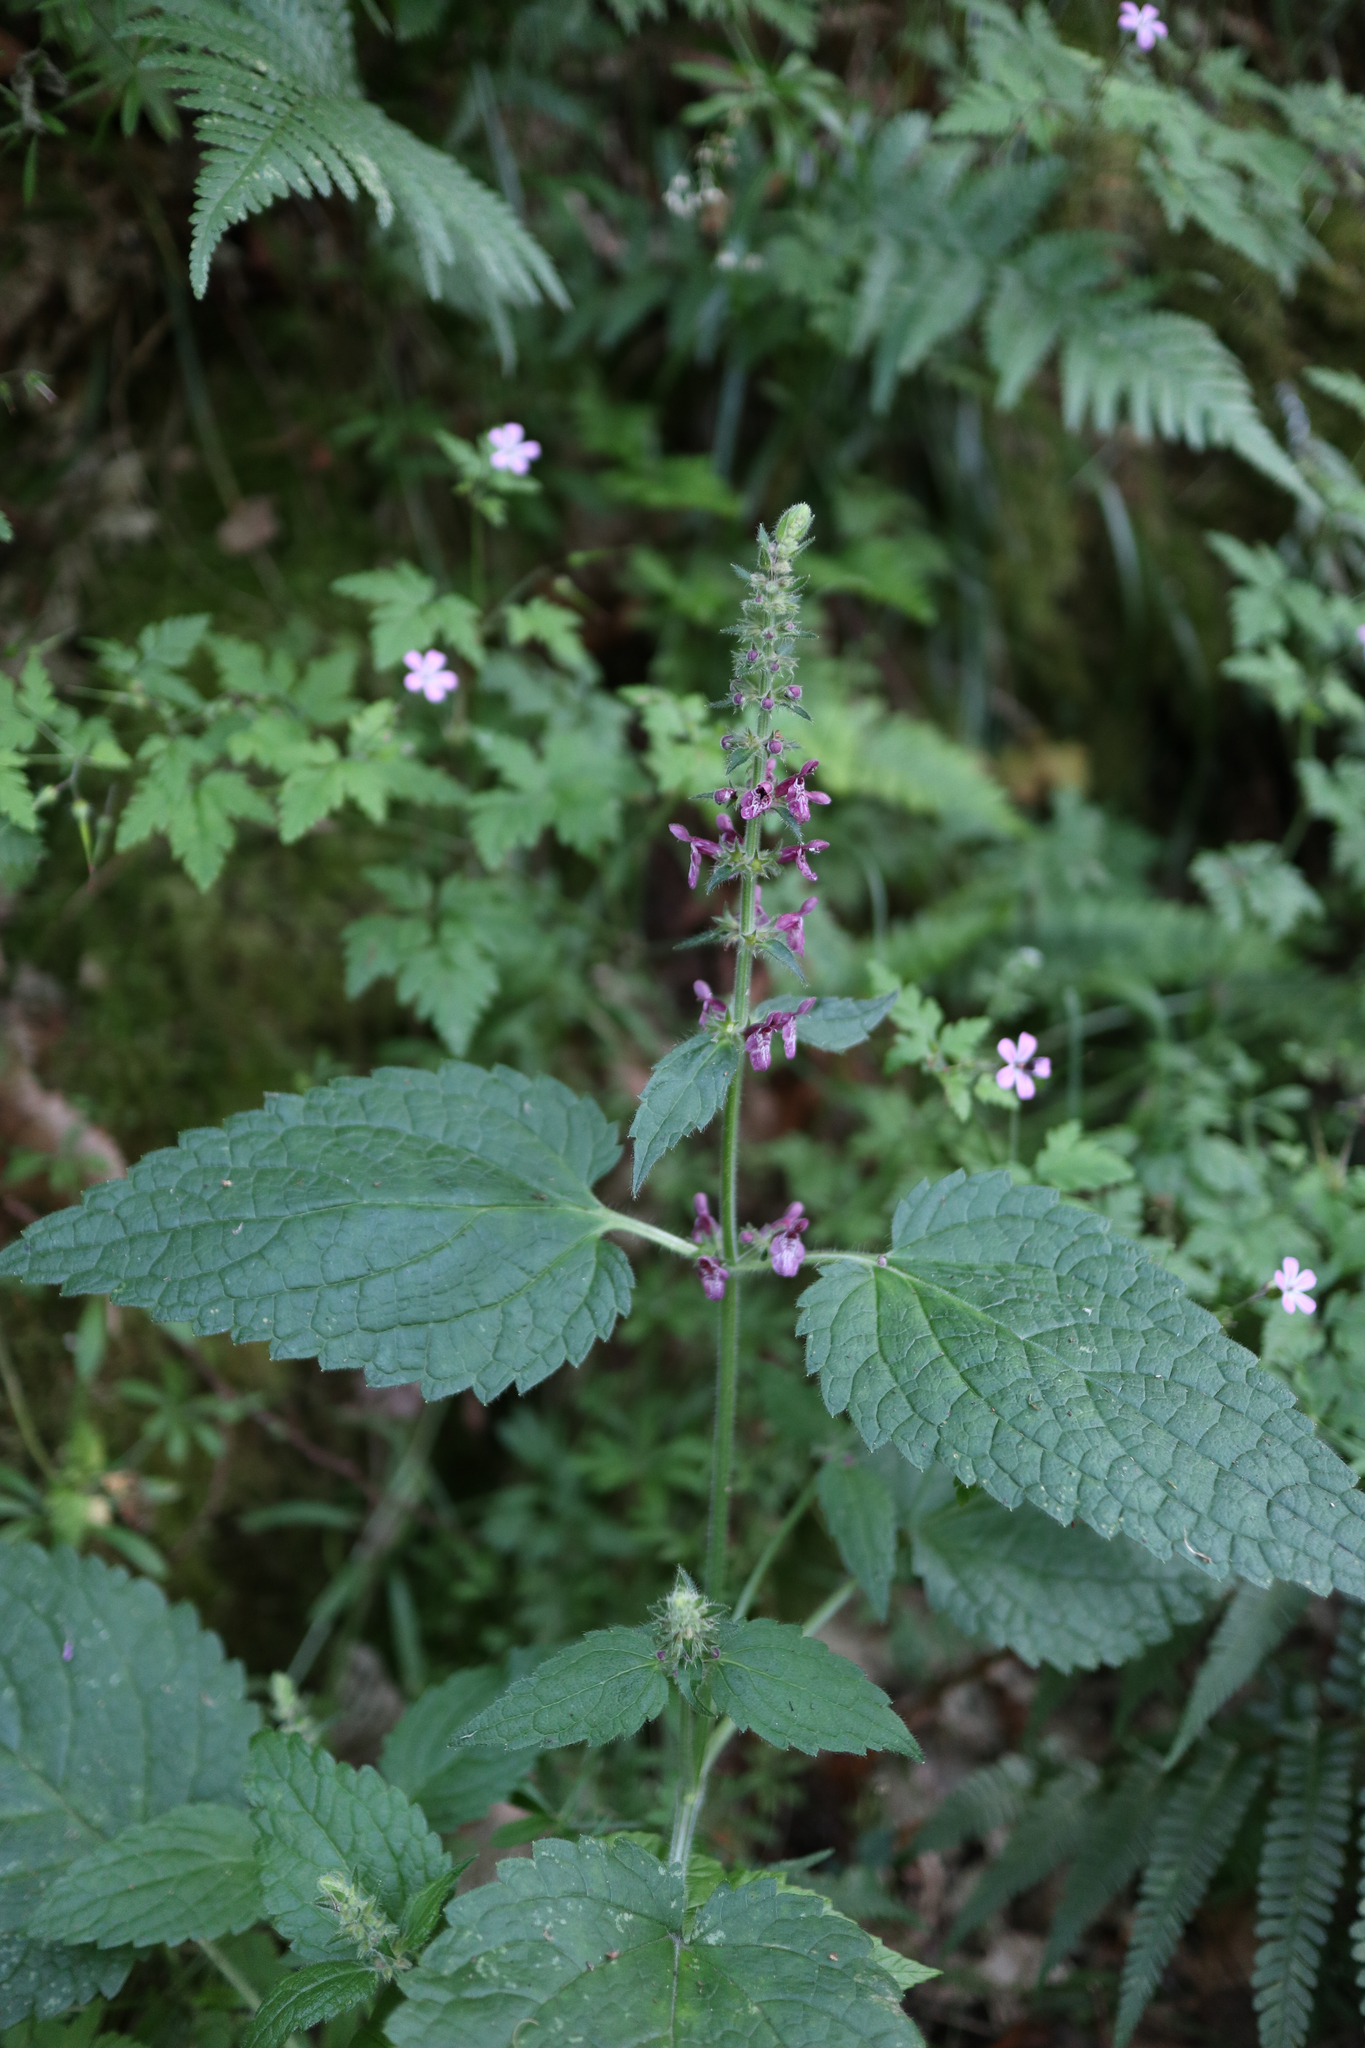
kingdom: Plantae
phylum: Tracheophyta
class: Magnoliopsida
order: Lamiales
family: Lamiaceae
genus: Stachys
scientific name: Stachys sylvatica
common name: Hedge woundwort
